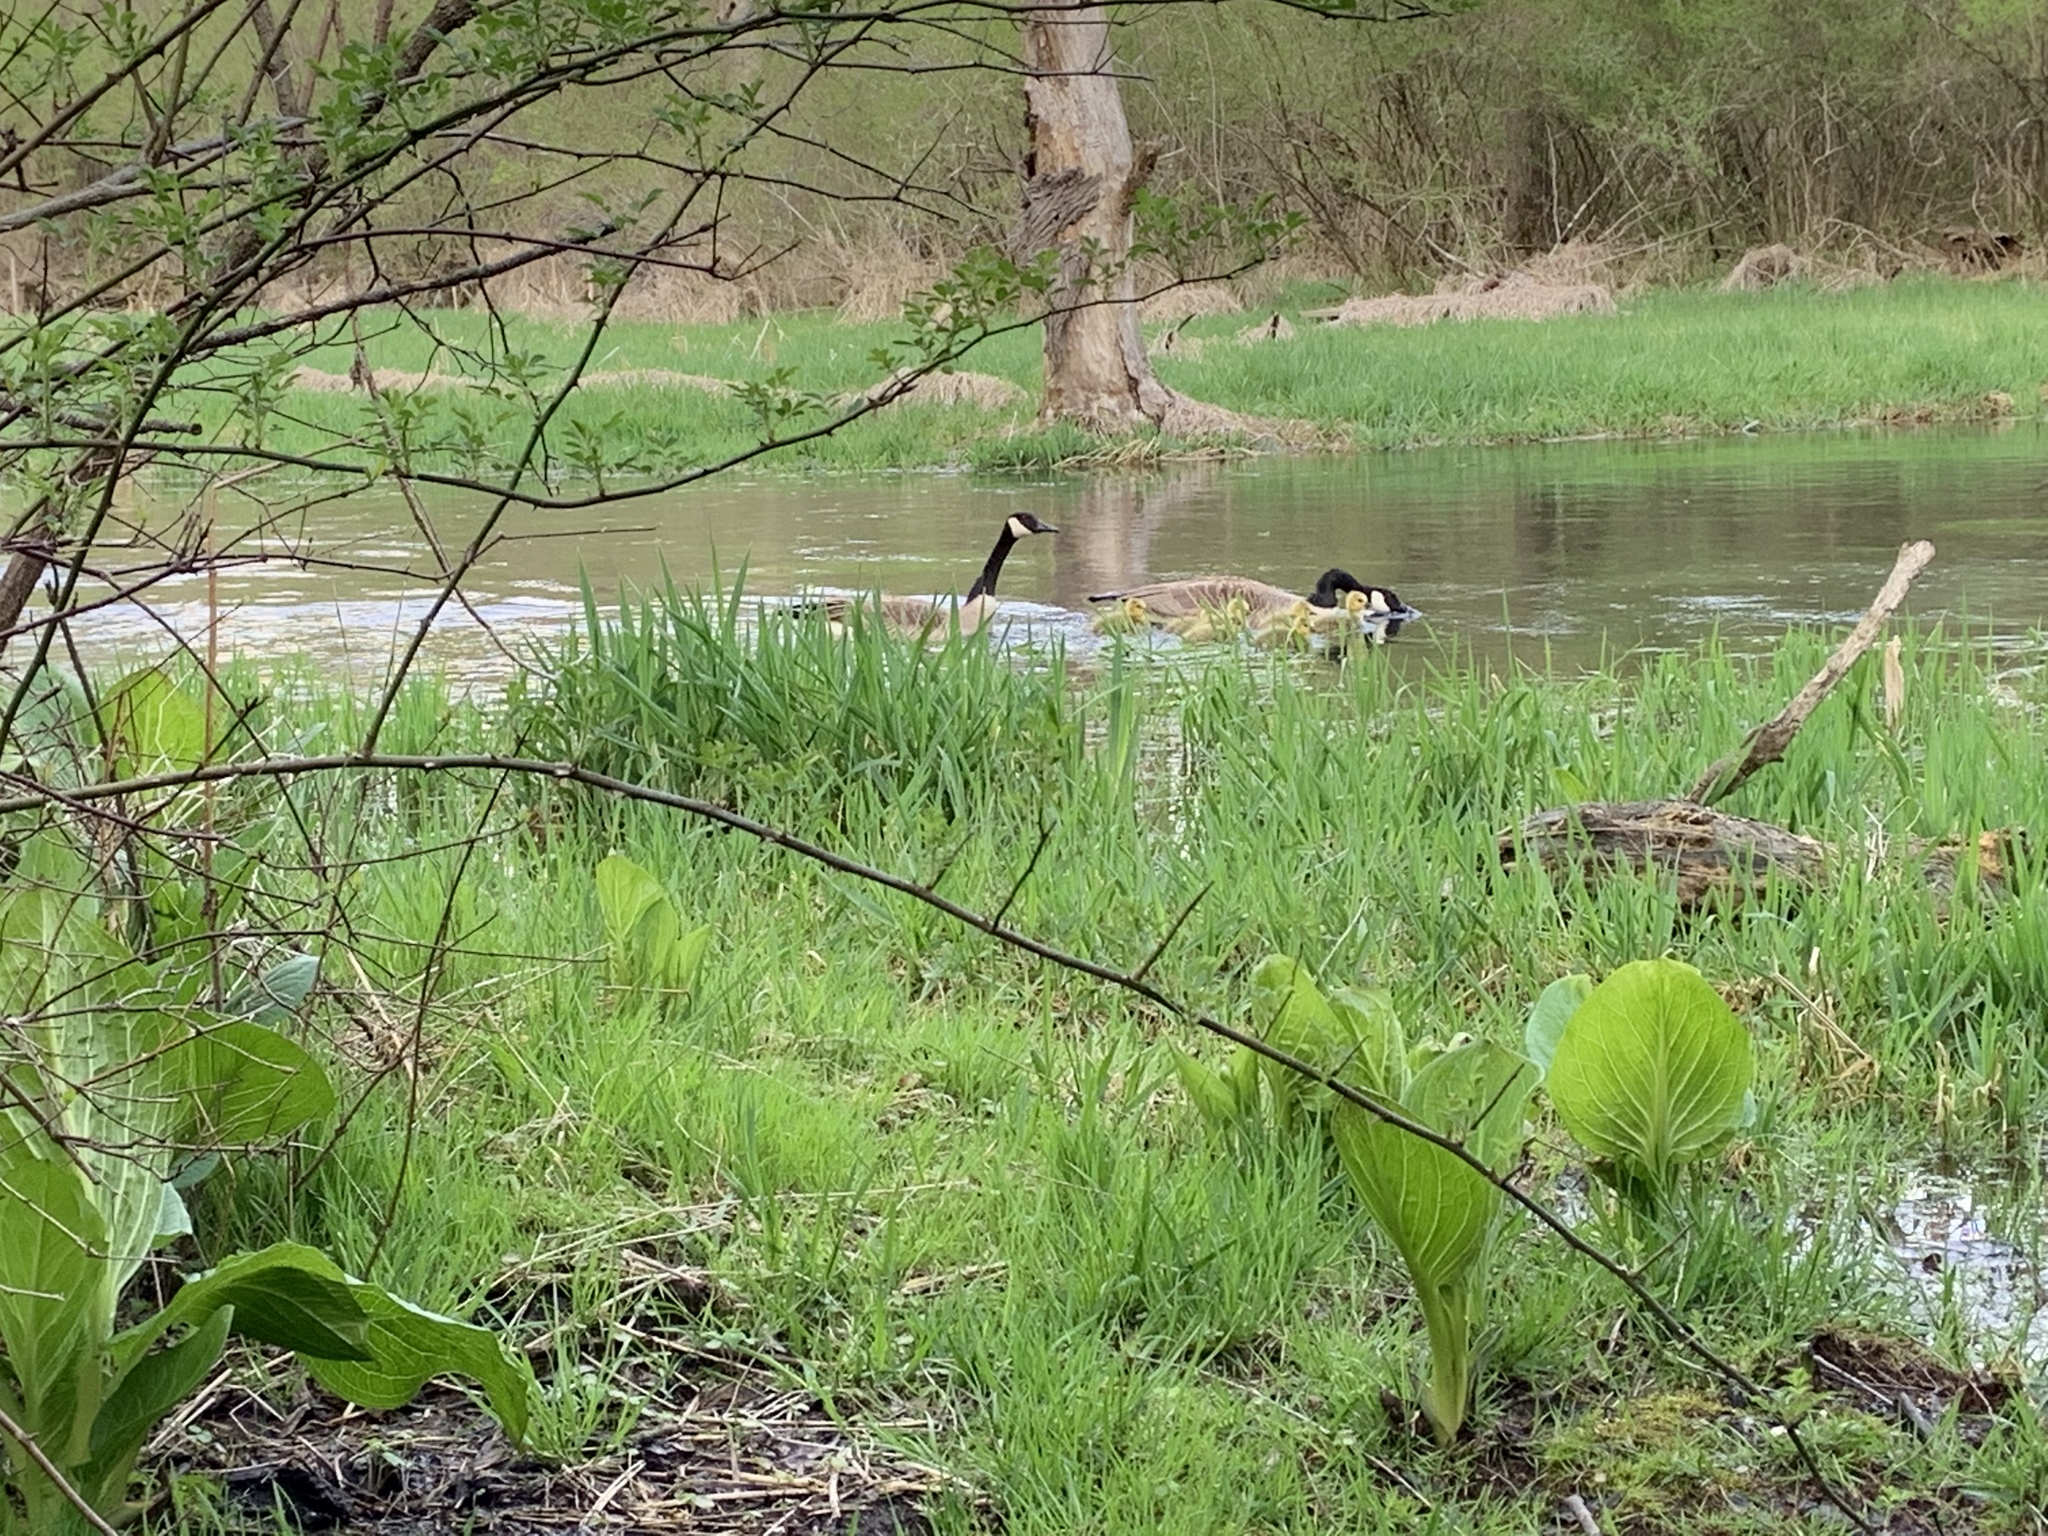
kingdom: Animalia
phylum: Chordata
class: Aves
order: Anseriformes
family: Anatidae
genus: Branta
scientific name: Branta canadensis
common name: Canada goose
